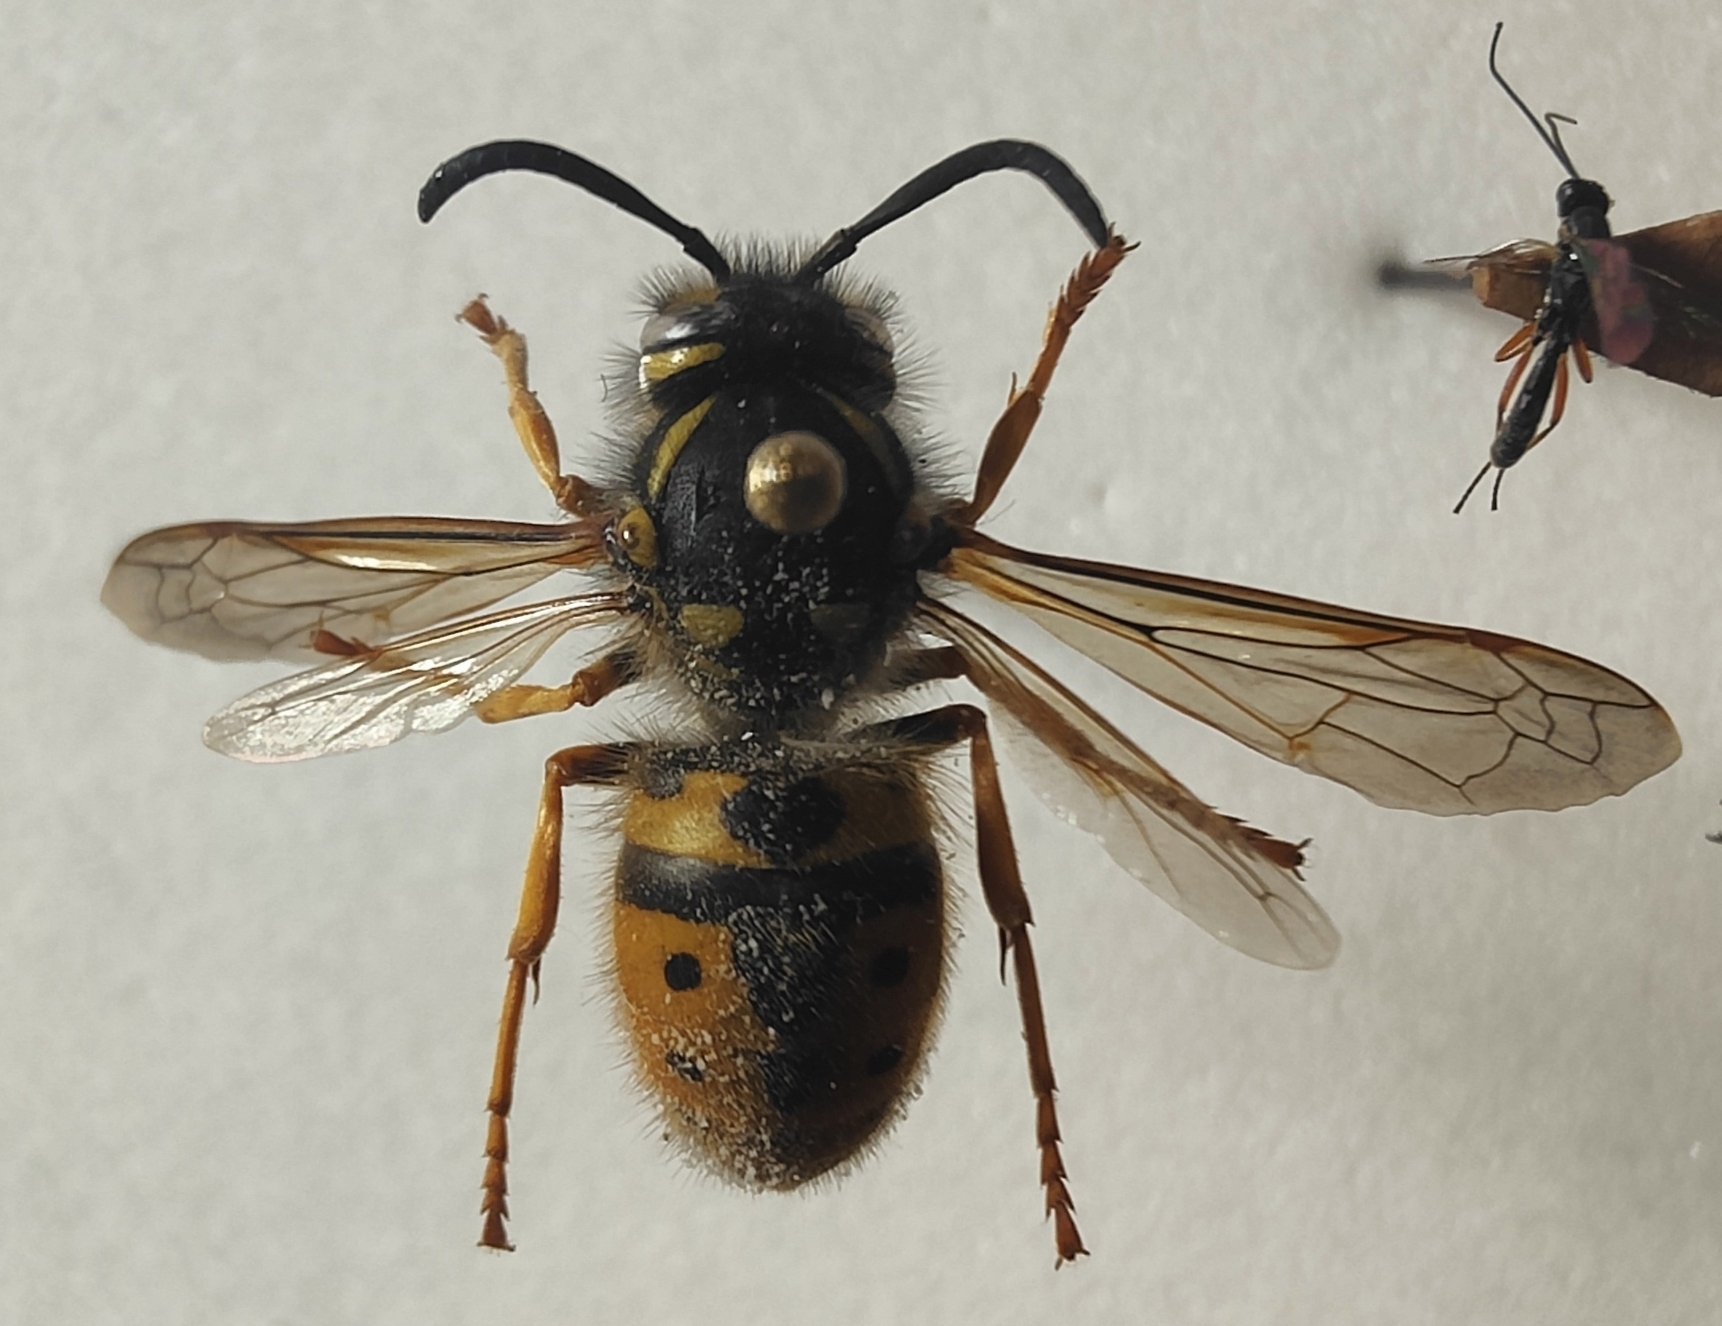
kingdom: Animalia
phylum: Arthropoda
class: Insecta
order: Hymenoptera
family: Vespidae
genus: Vespula
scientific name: Vespula germanica
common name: German wasp
